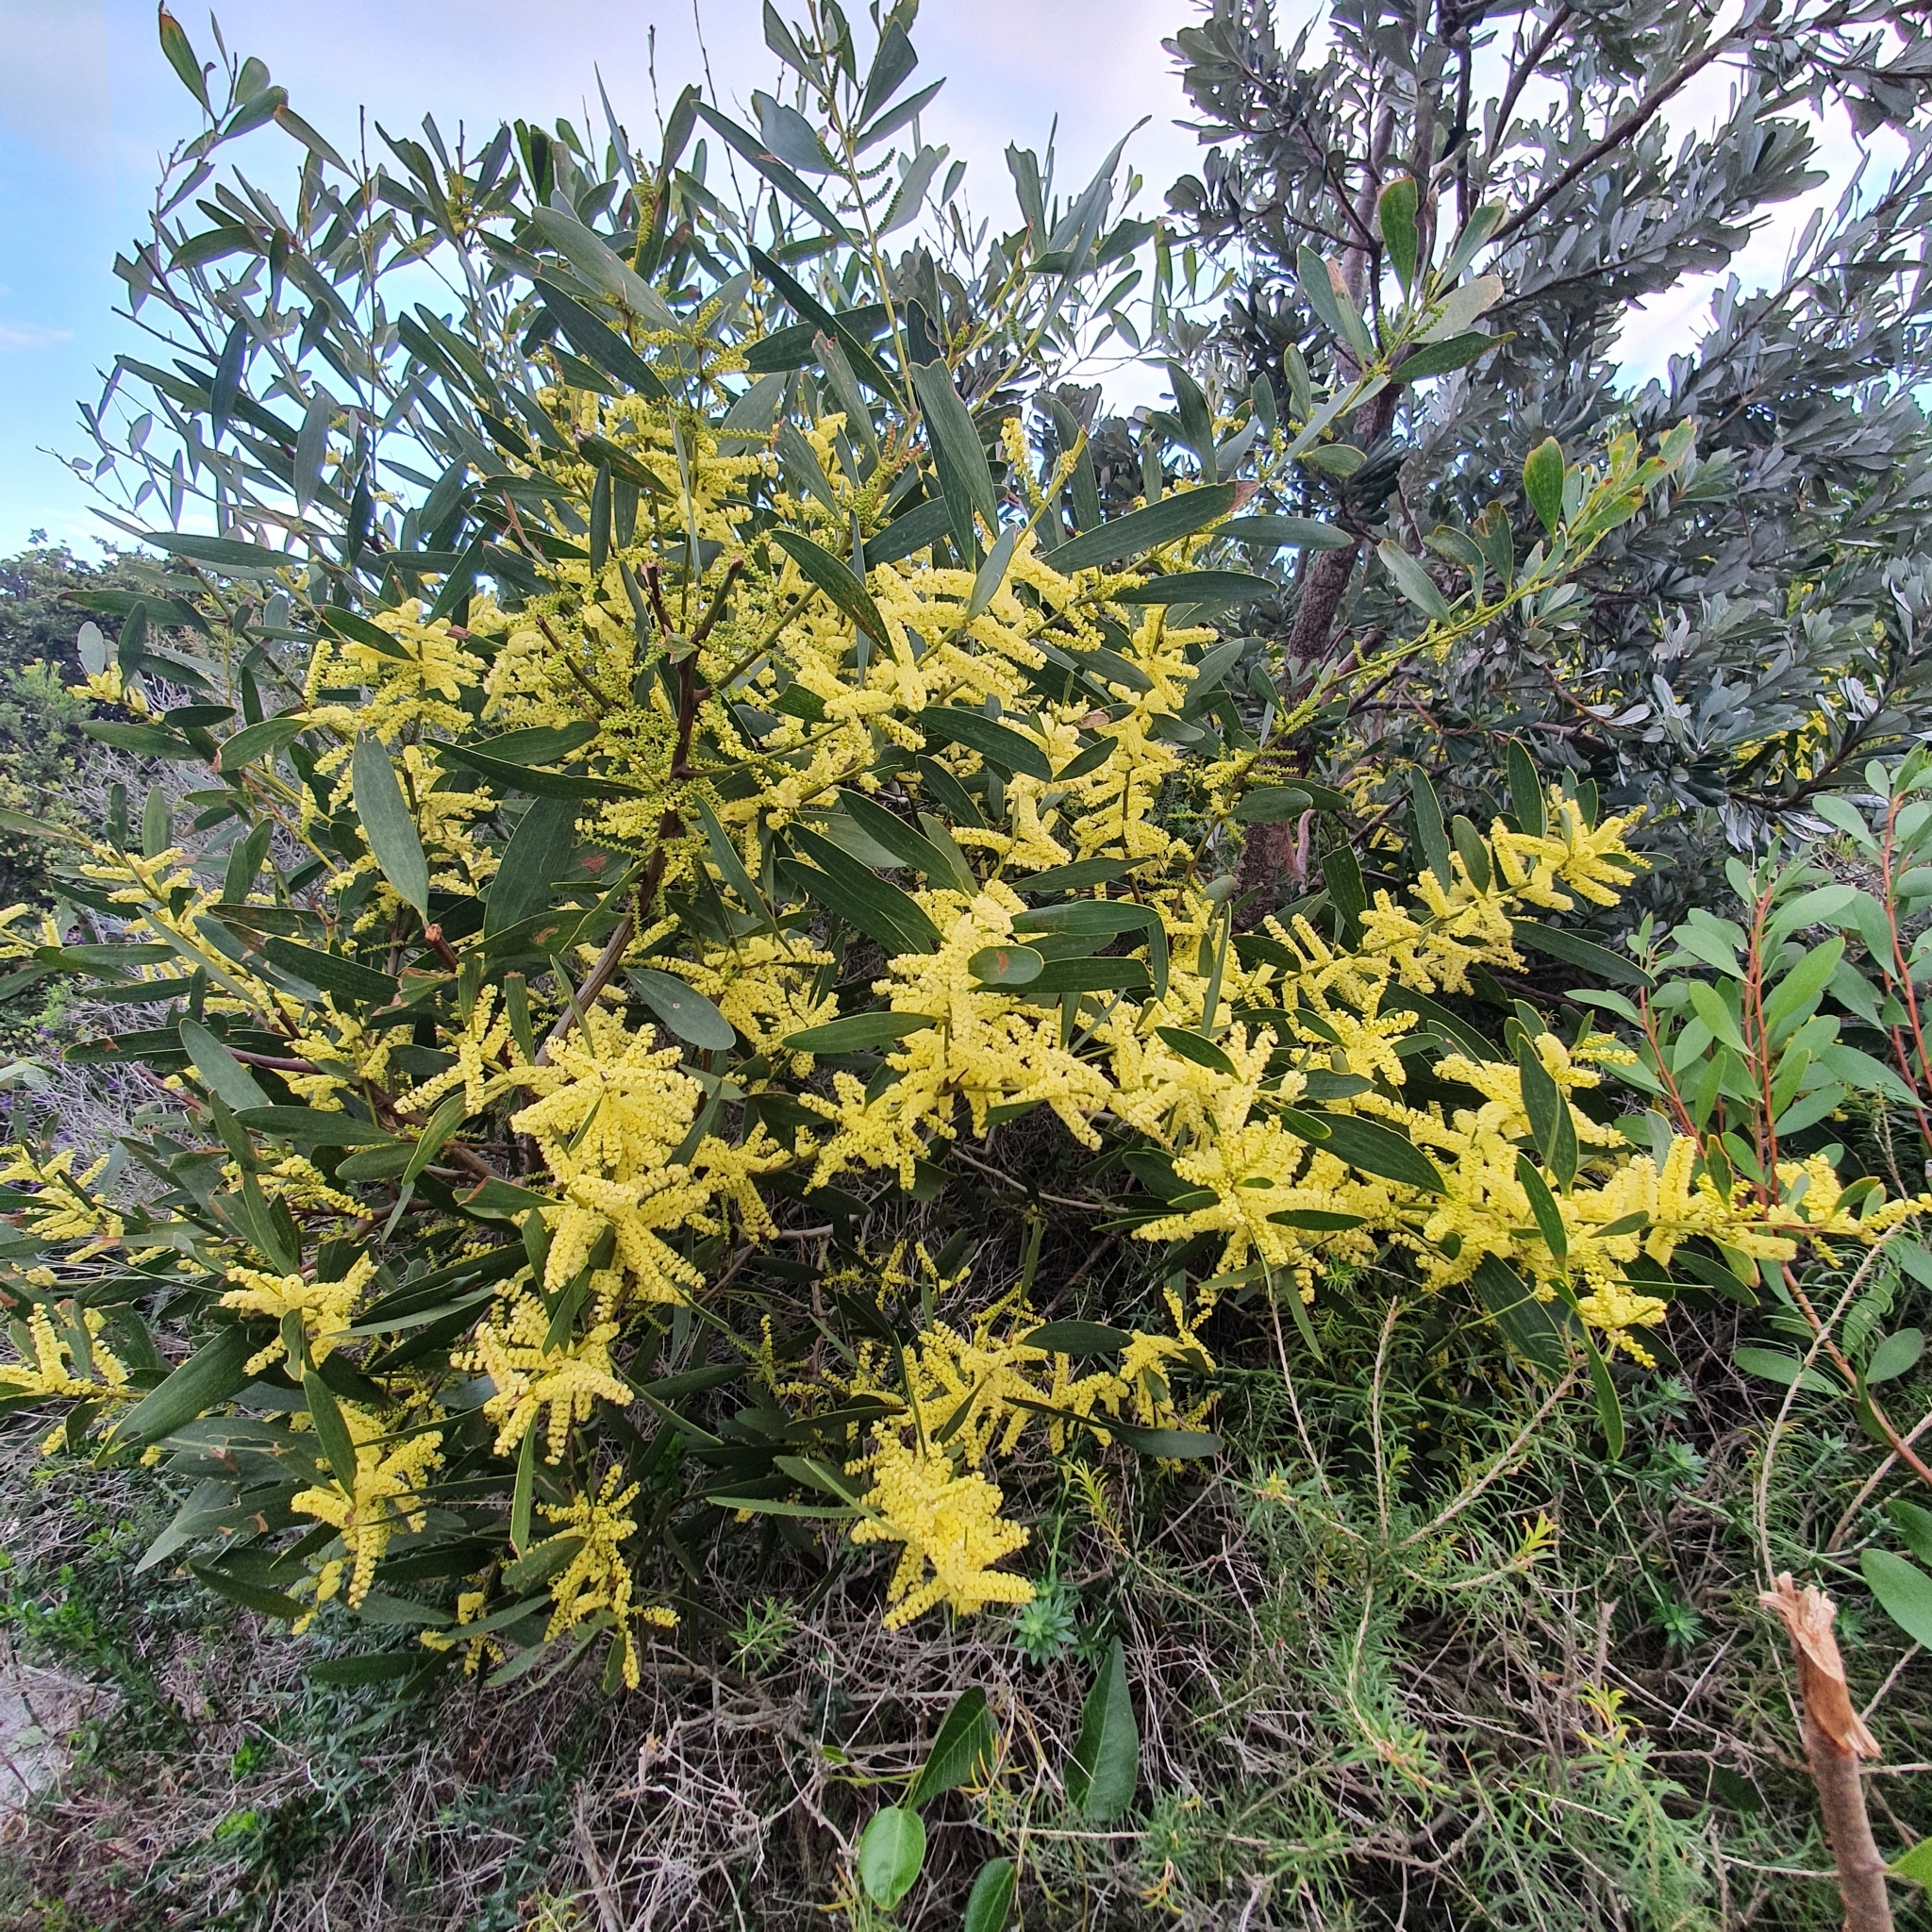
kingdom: Plantae
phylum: Tracheophyta
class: Magnoliopsida
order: Fabales
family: Fabaceae
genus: Acacia
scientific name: Acacia longifolia
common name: Sydney golden wattle
